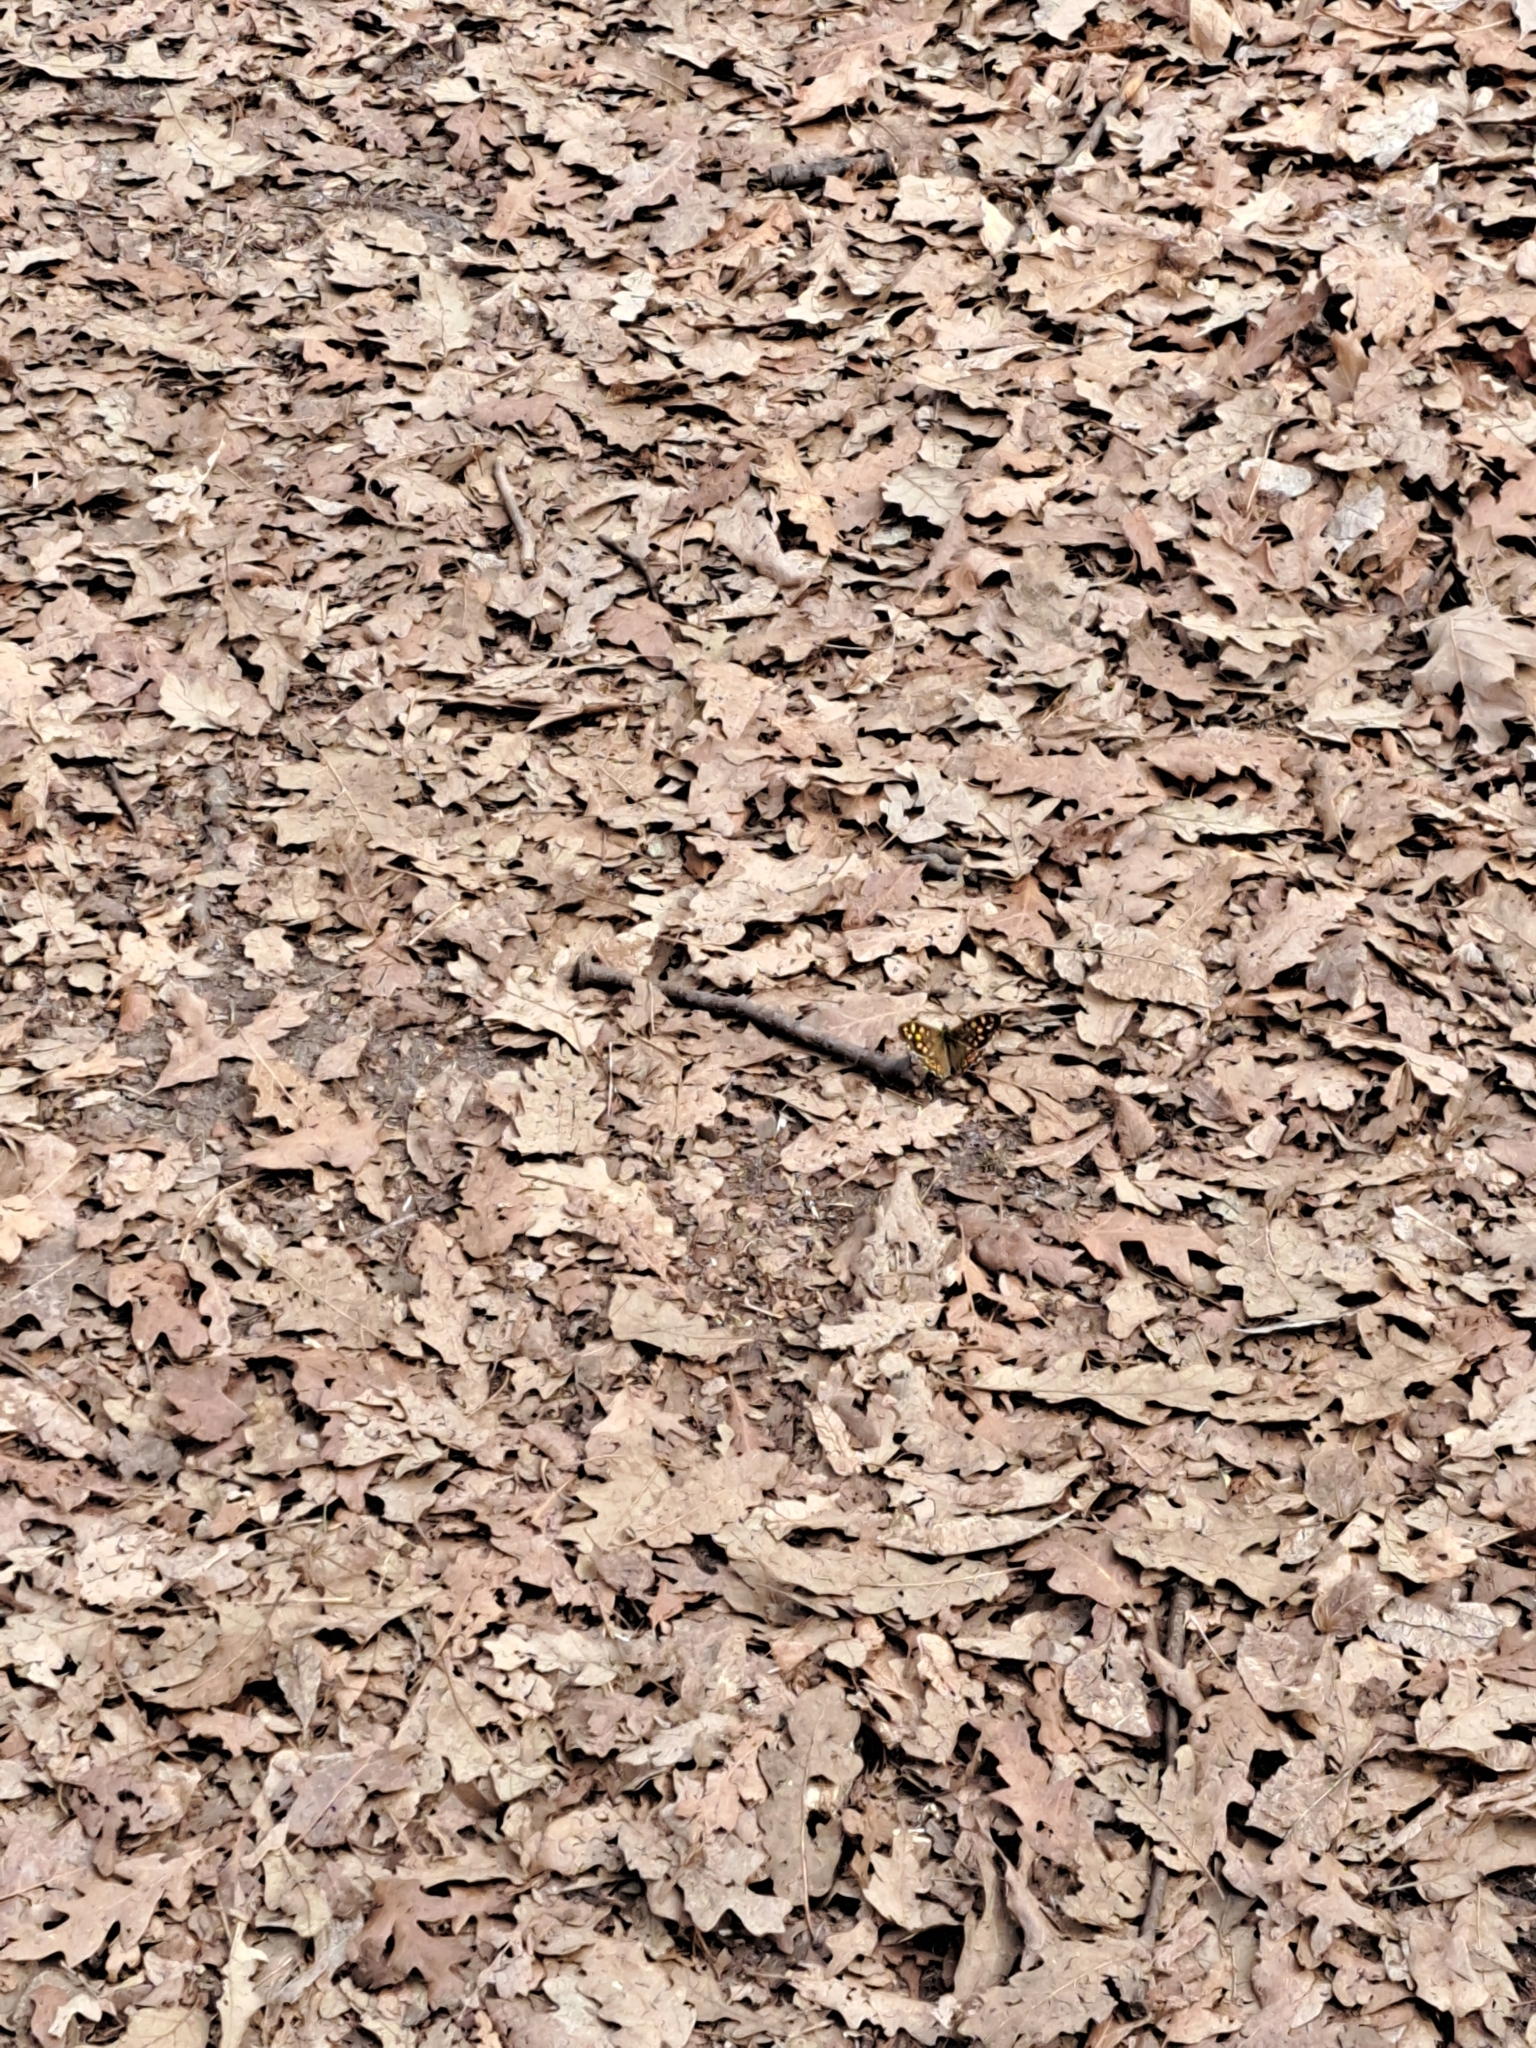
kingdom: Animalia
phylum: Arthropoda
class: Insecta
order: Lepidoptera
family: Nymphalidae
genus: Pararge
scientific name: Pararge aegeria
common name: Speckled wood
